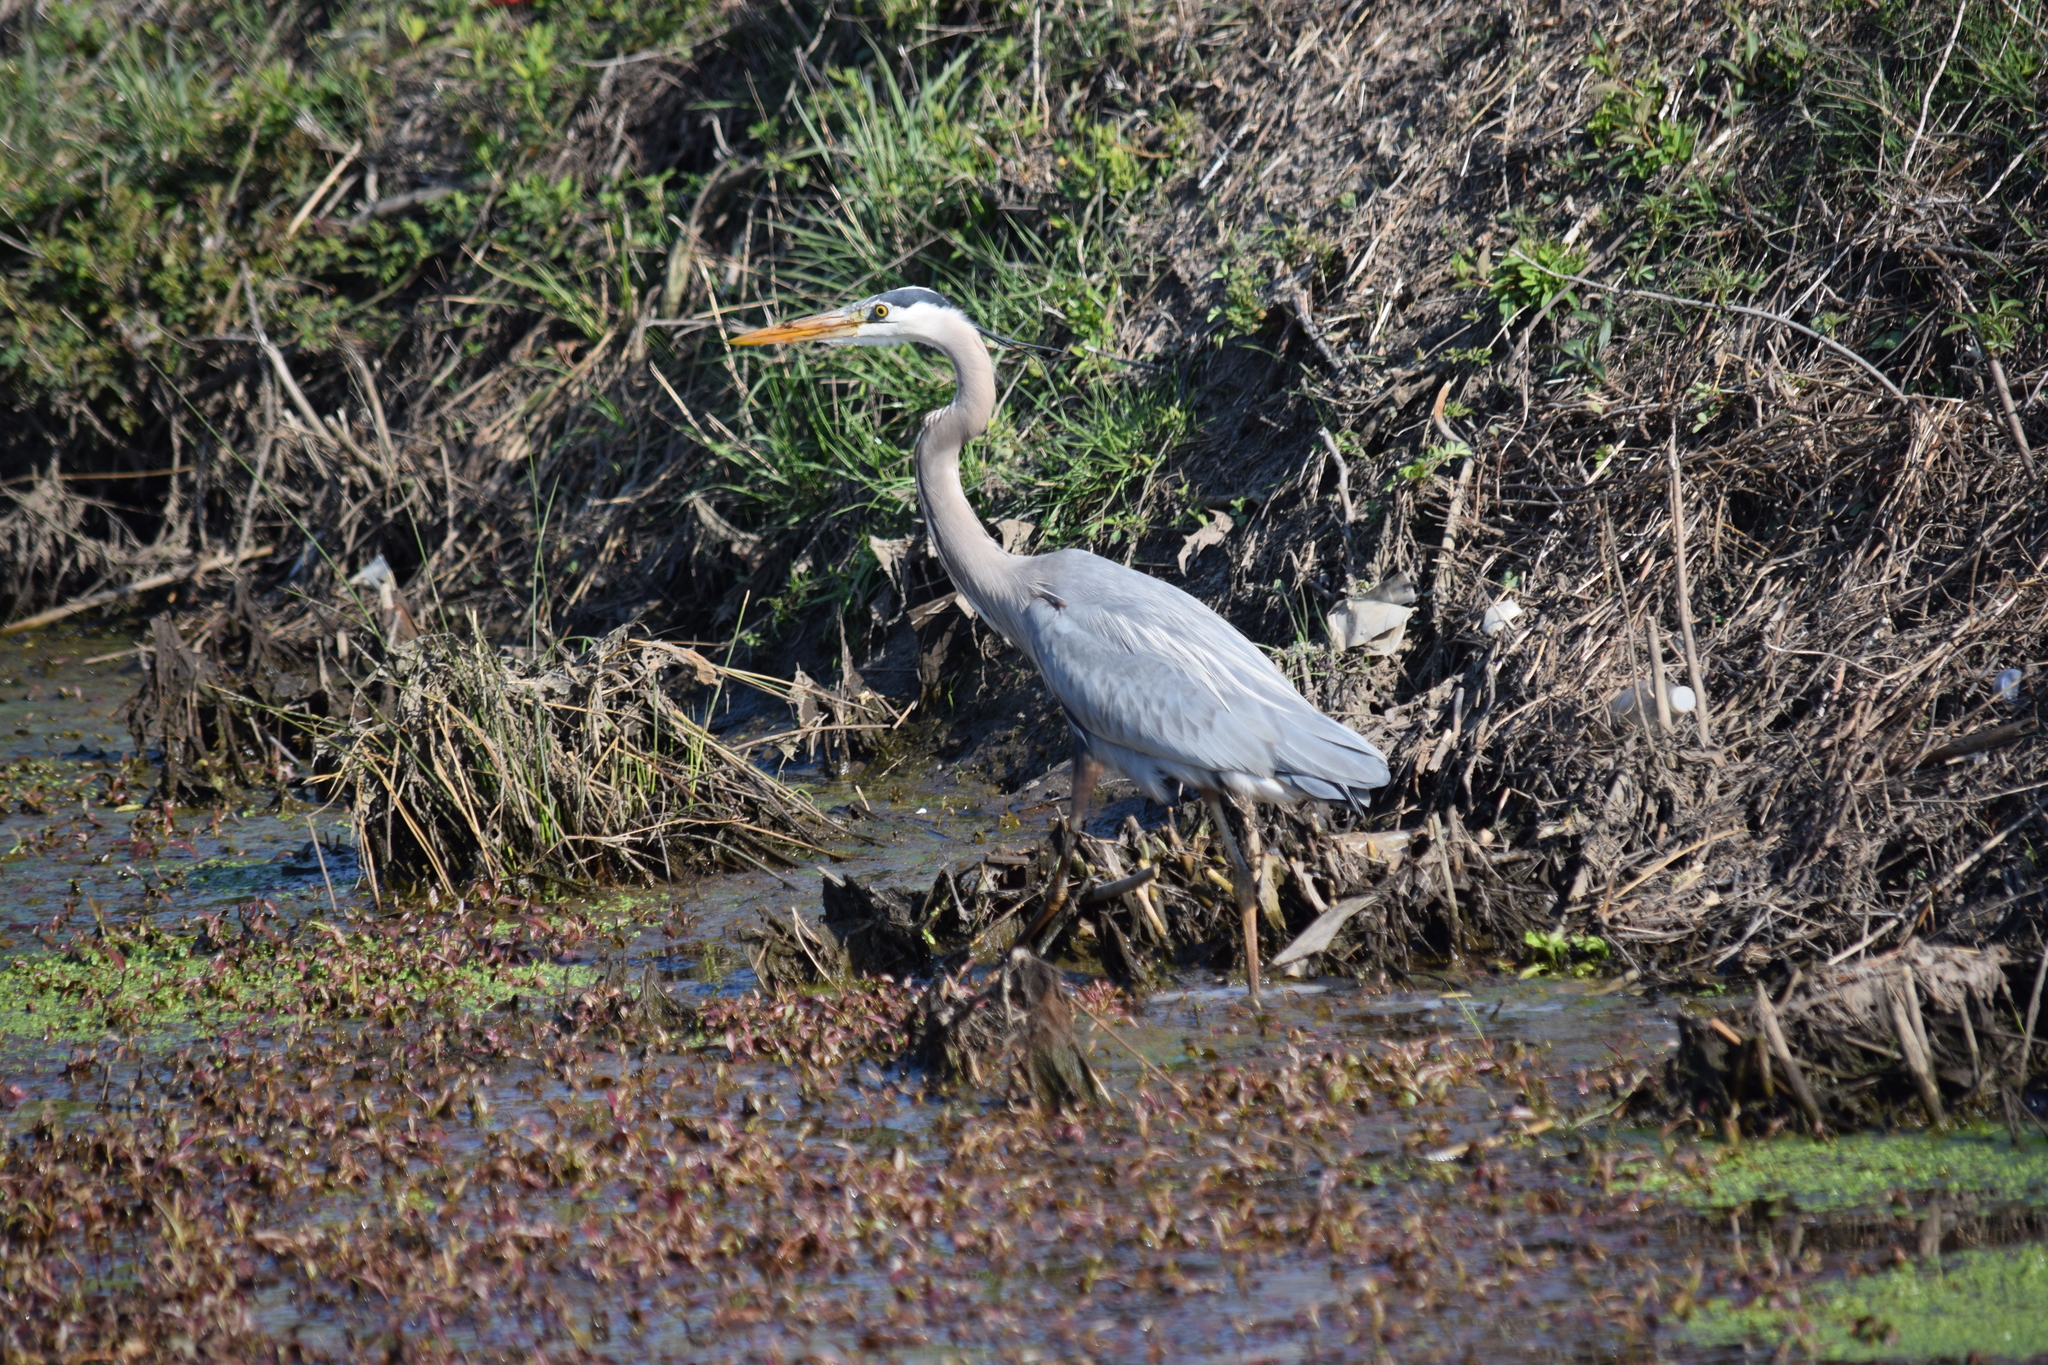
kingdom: Animalia
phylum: Chordata
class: Aves
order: Pelecaniformes
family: Ardeidae
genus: Ardea
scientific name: Ardea herodias
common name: Great blue heron
